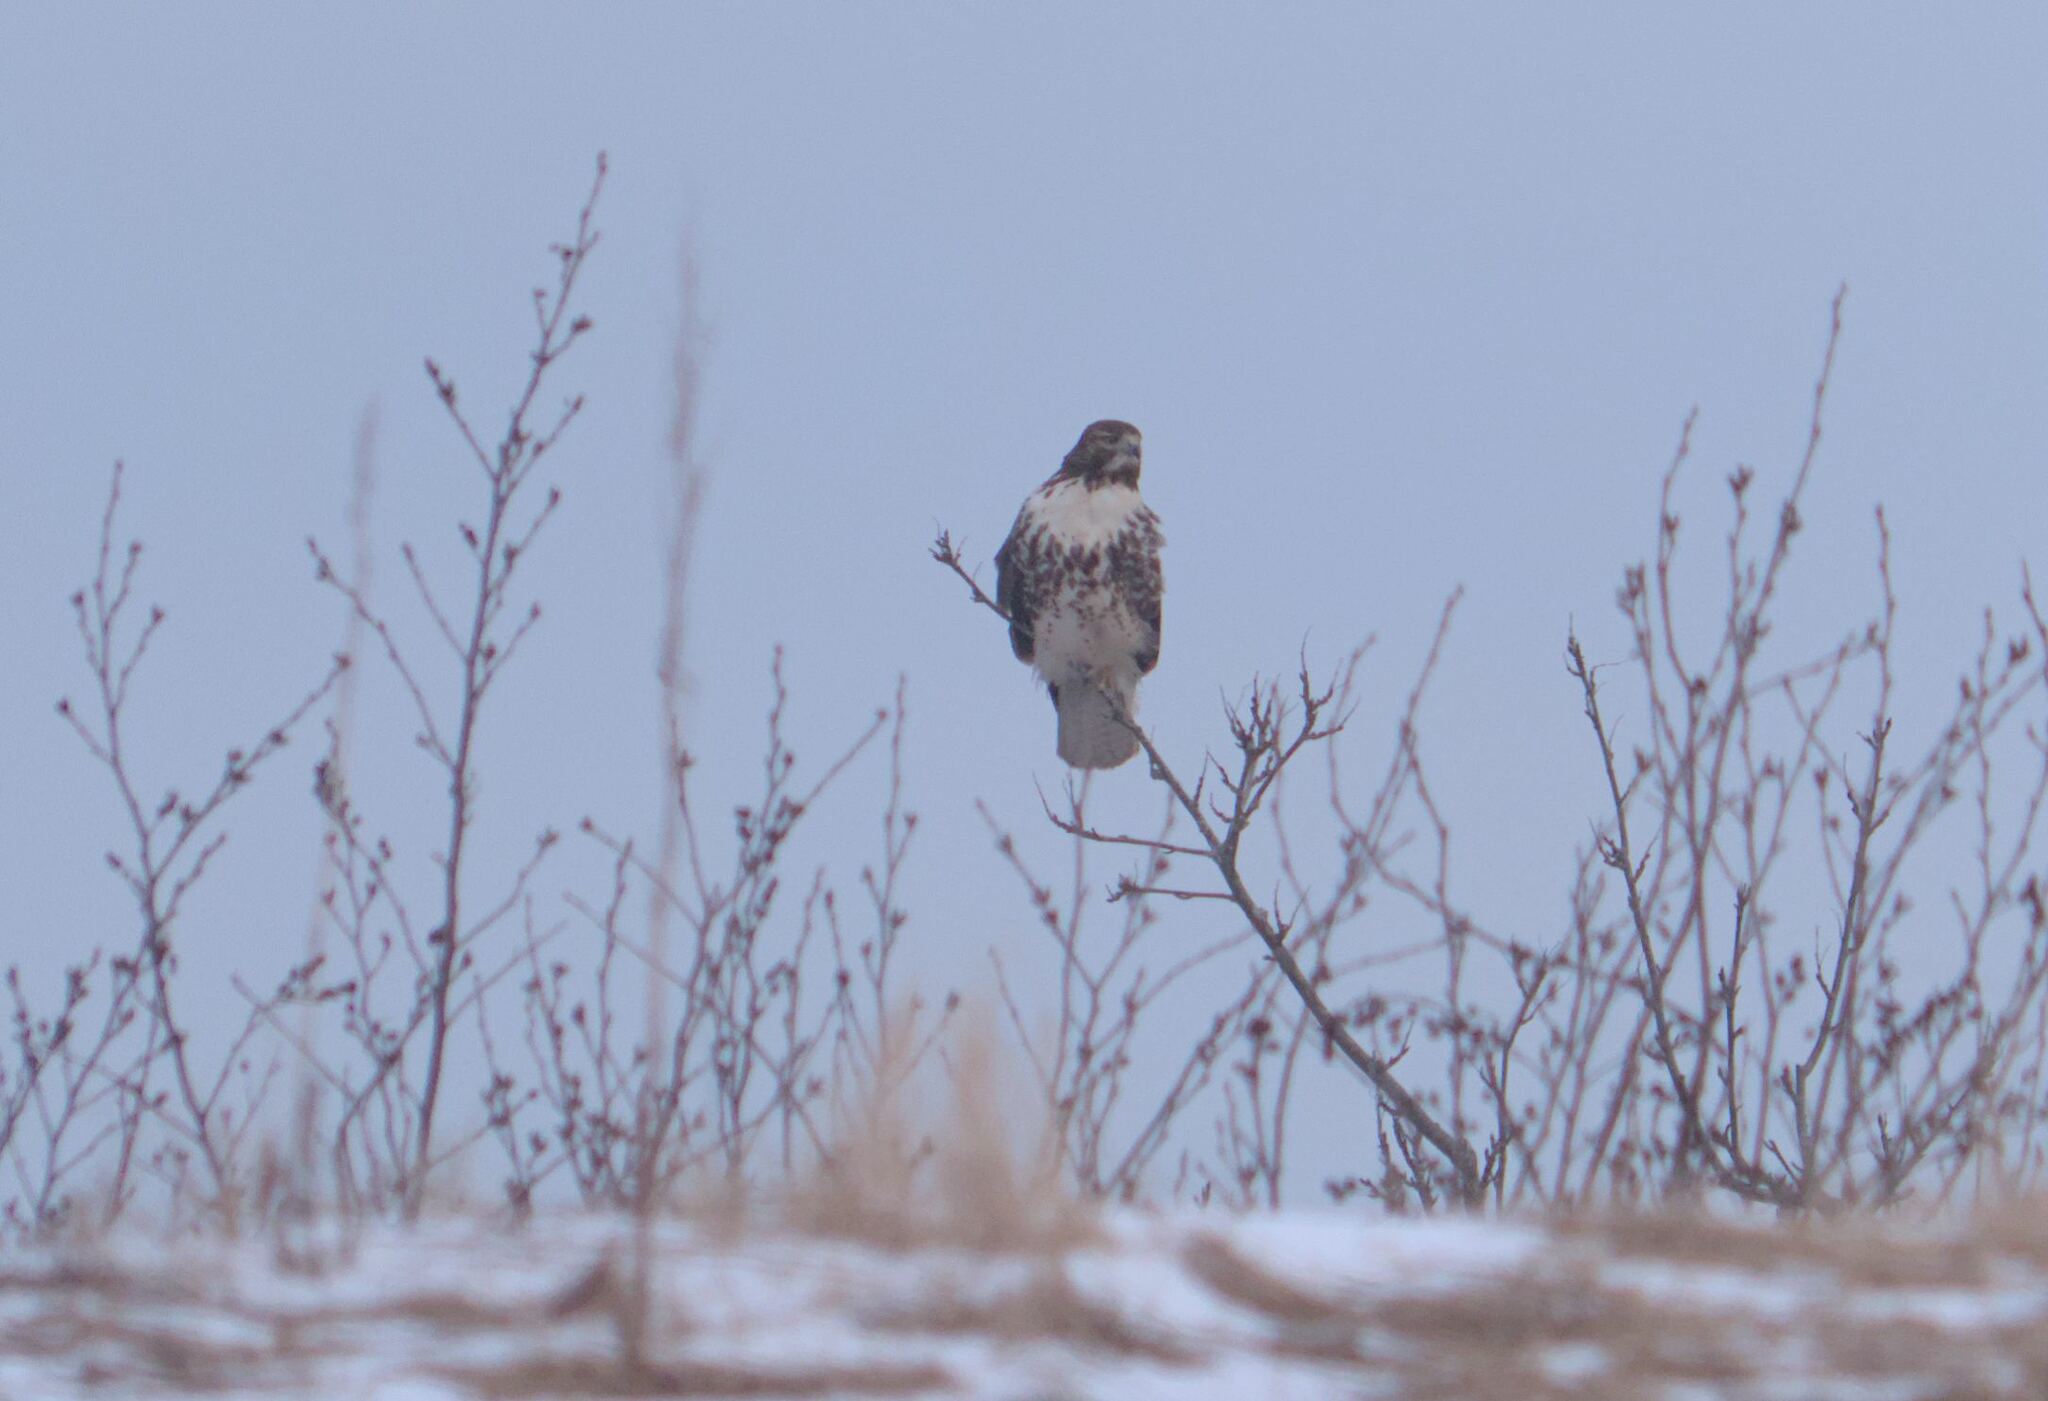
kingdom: Animalia
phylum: Chordata
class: Aves
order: Accipitriformes
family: Accipitridae
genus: Buteo
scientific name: Buteo jamaicensis
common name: Red-tailed hawk
